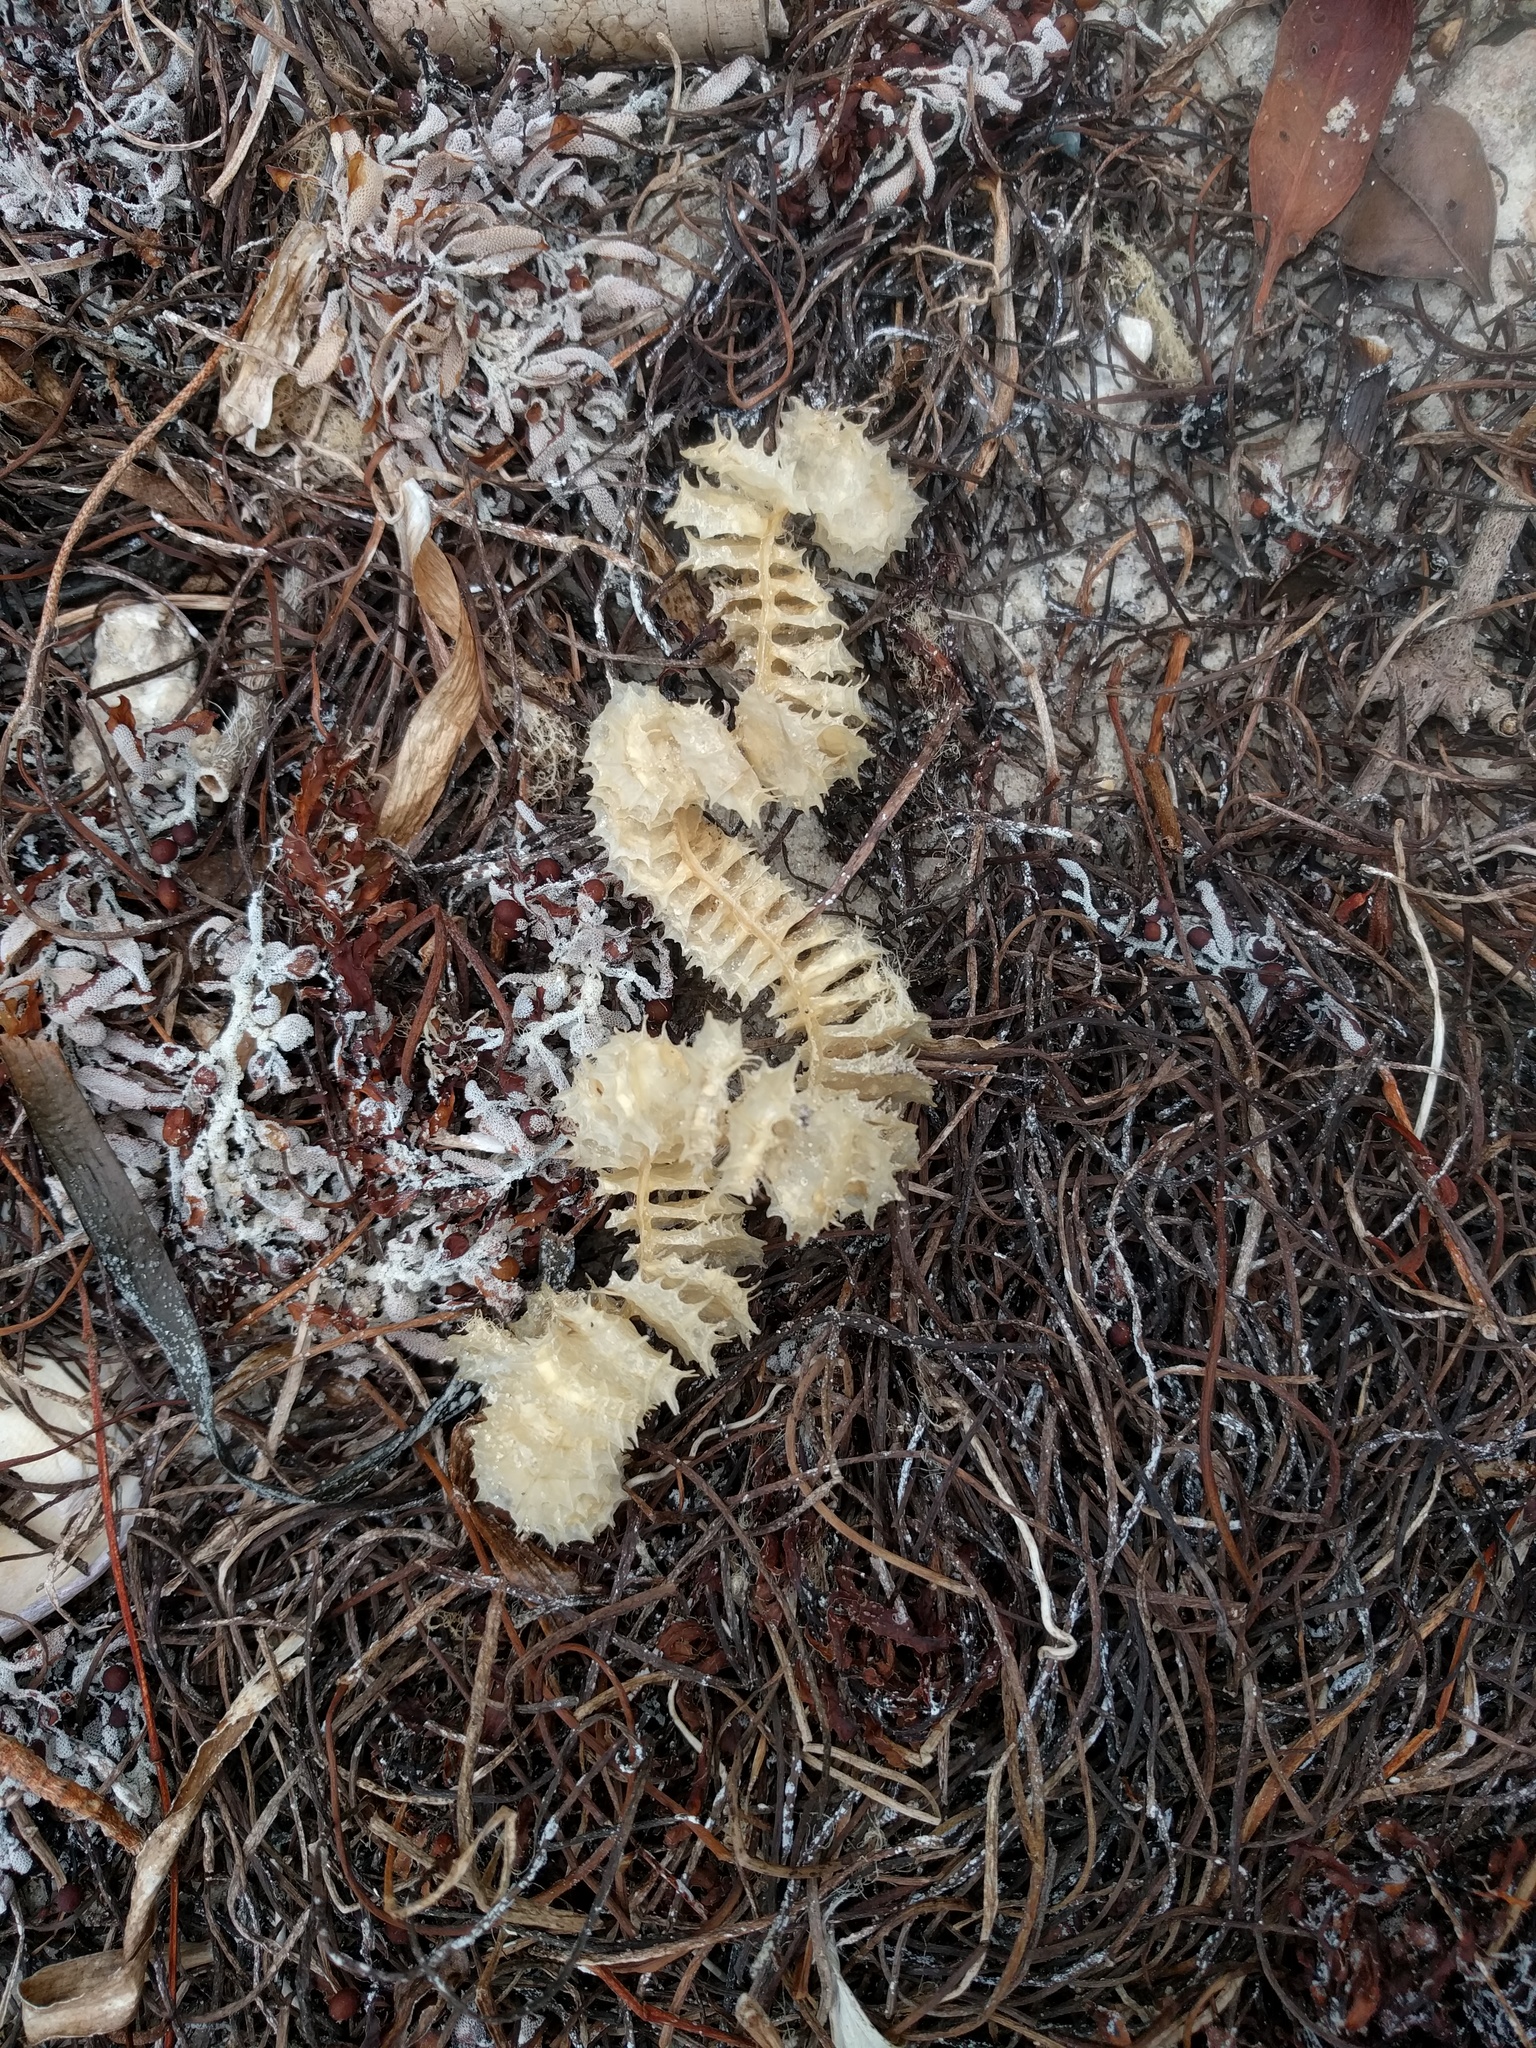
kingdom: Animalia
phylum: Mollusca
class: Gastropoda
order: Neogastropoda
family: Busyconidae
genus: Fulguropsis
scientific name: Fulguropsis pyruloides
